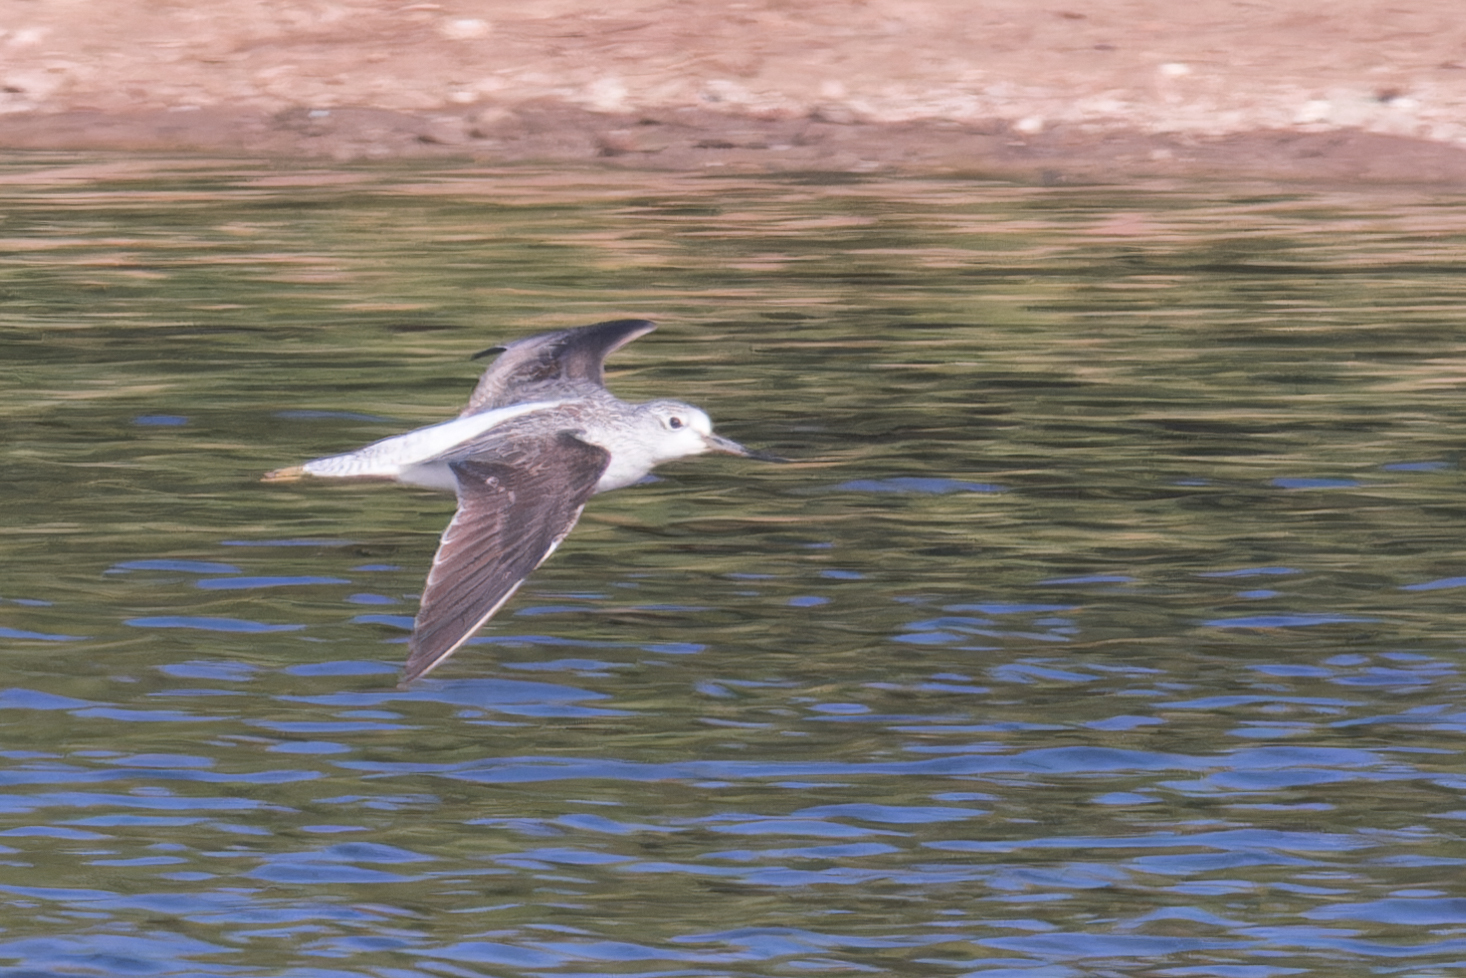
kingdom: Animalia
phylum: Chordata
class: Aves
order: Charadriiformes
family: Scolopacidae
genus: Tringa
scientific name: Tringa nebularia
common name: Common greenshank
